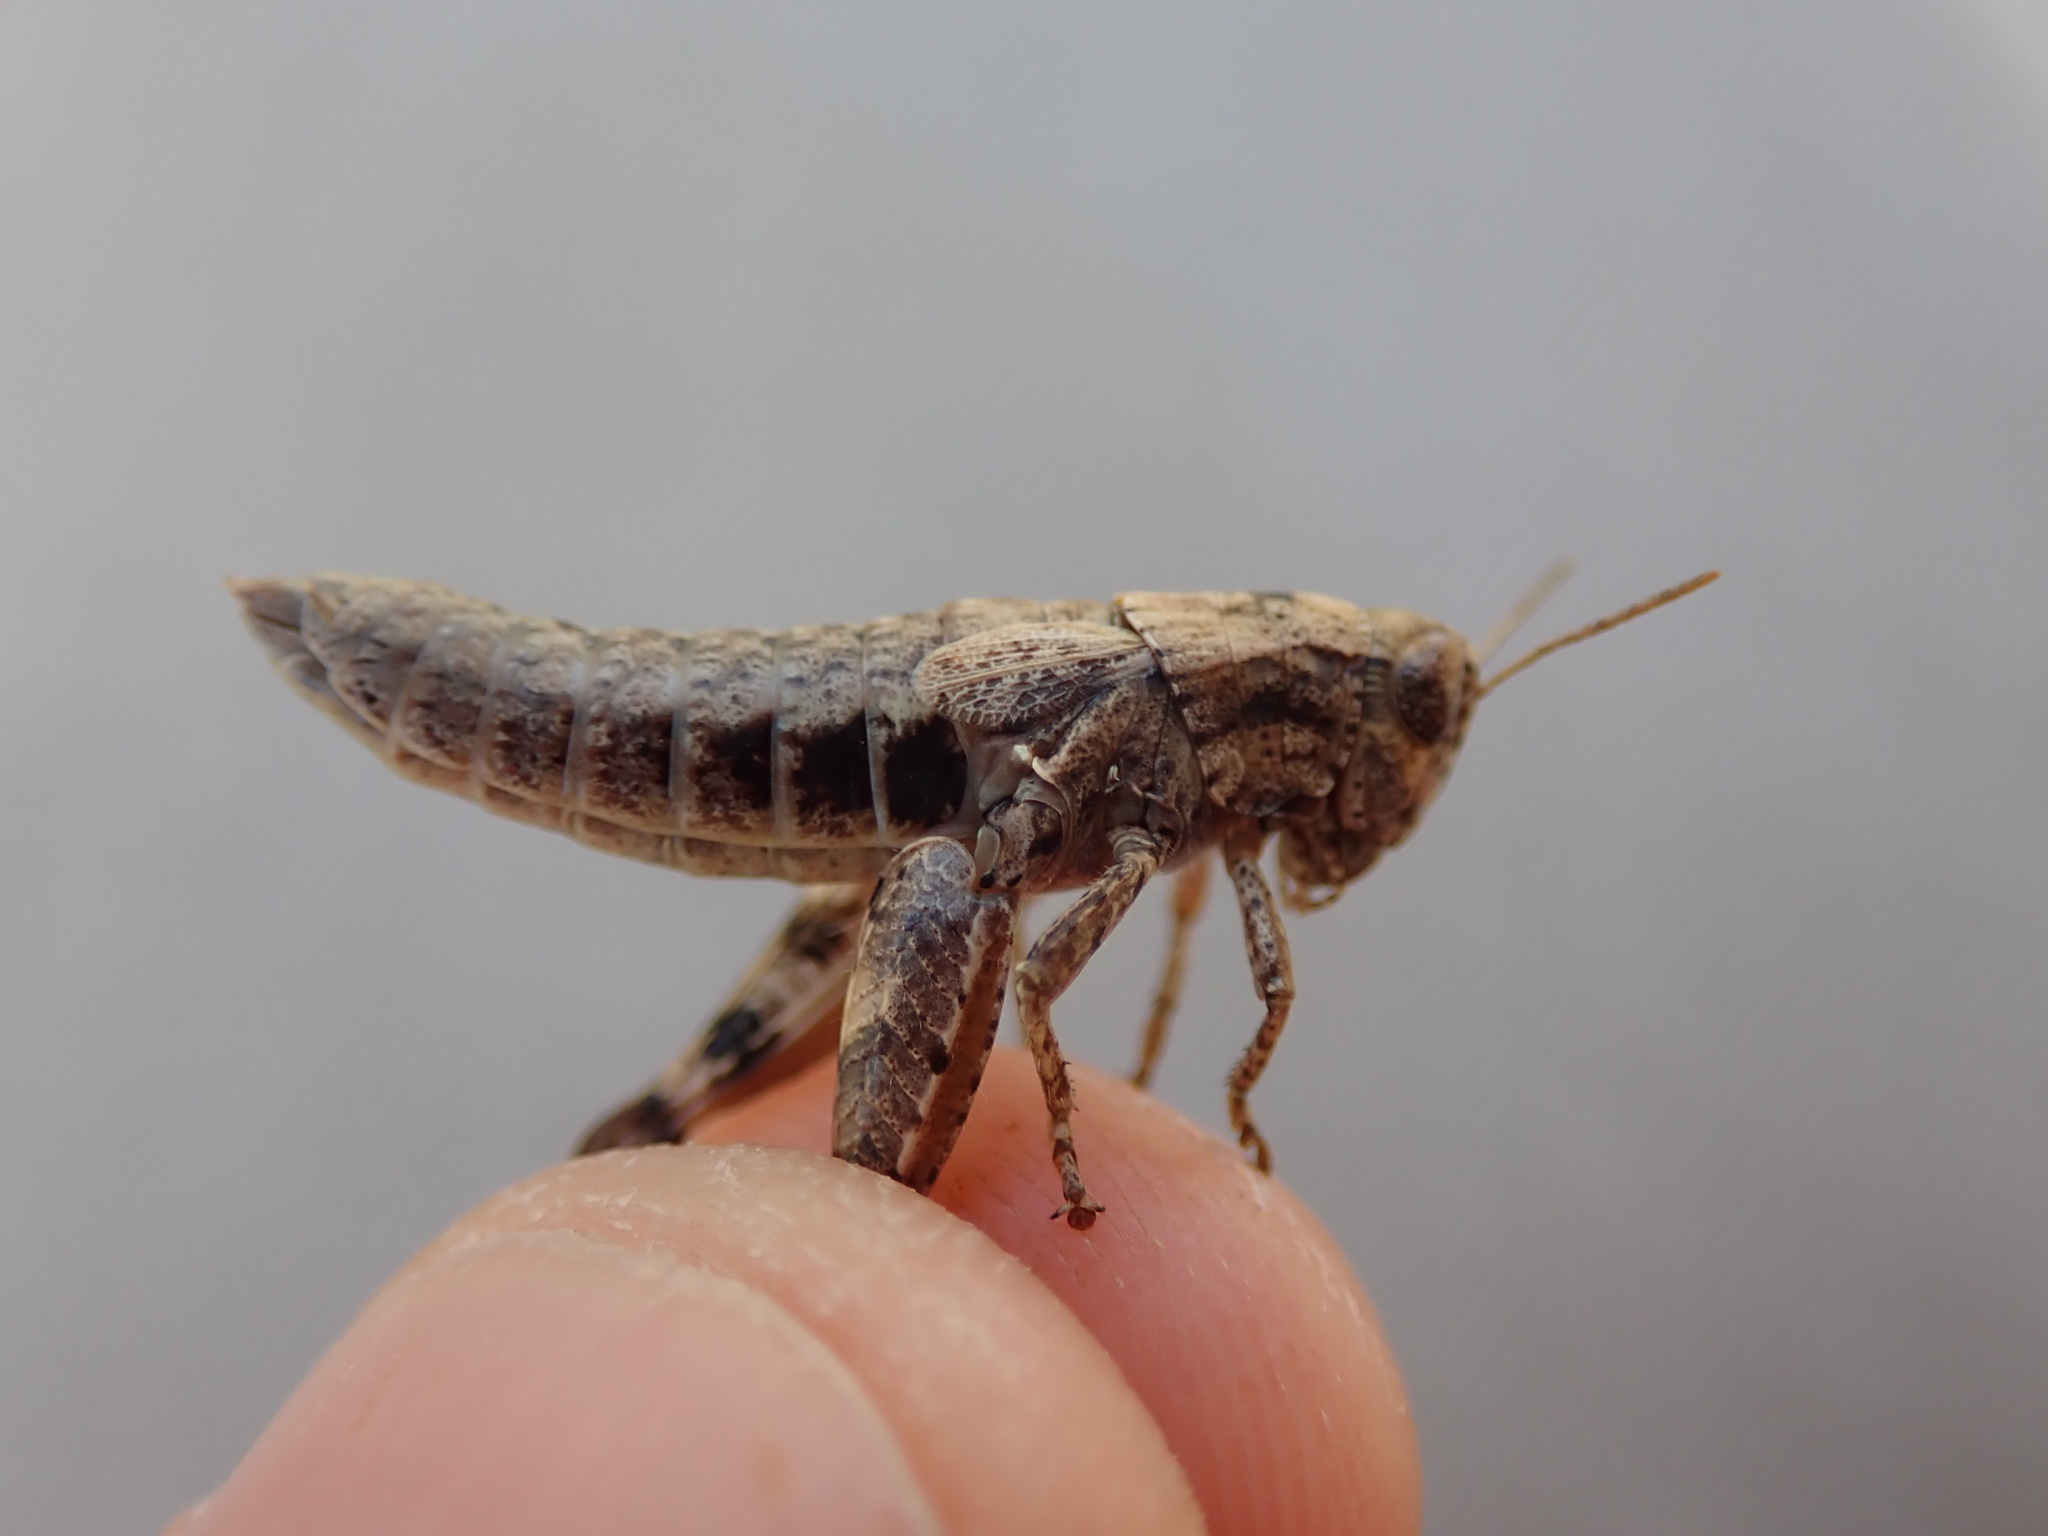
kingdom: Animalia
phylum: Arthropoda
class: Insecta
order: Orthoptera
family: Acrididae
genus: Pezotettix
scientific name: Pezotettix giornae
